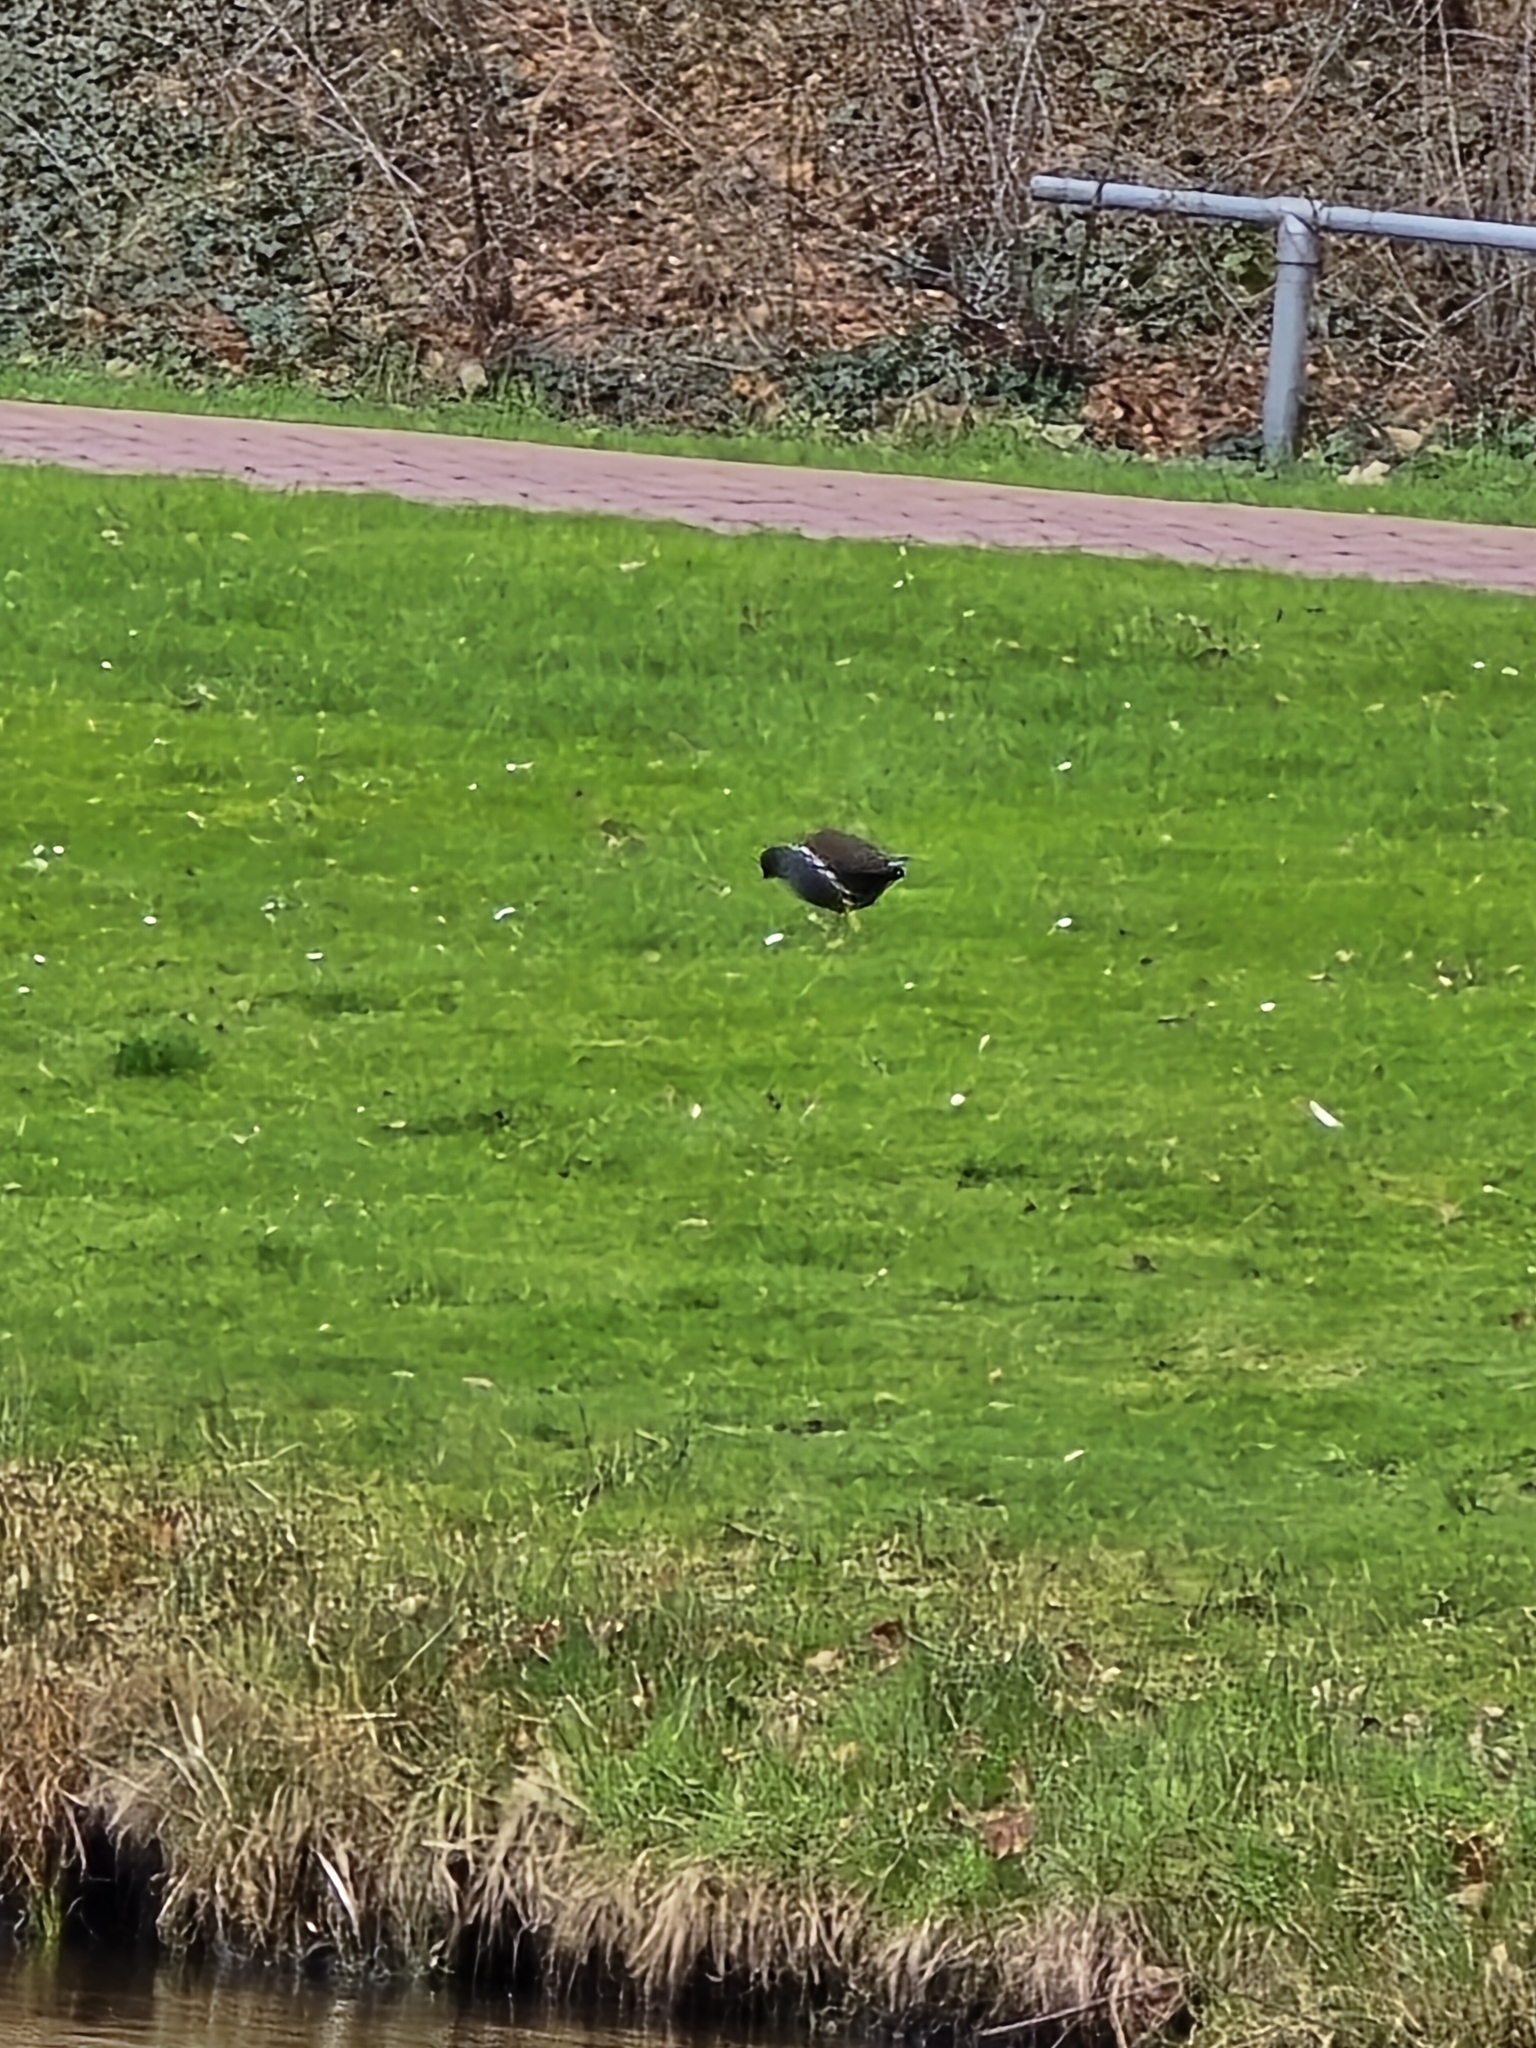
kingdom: Animalia
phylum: Chordata
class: Aves
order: Gruiformes
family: Rallidae
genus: Gallinula
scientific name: Gallinula chloropus
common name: Common moorhen
